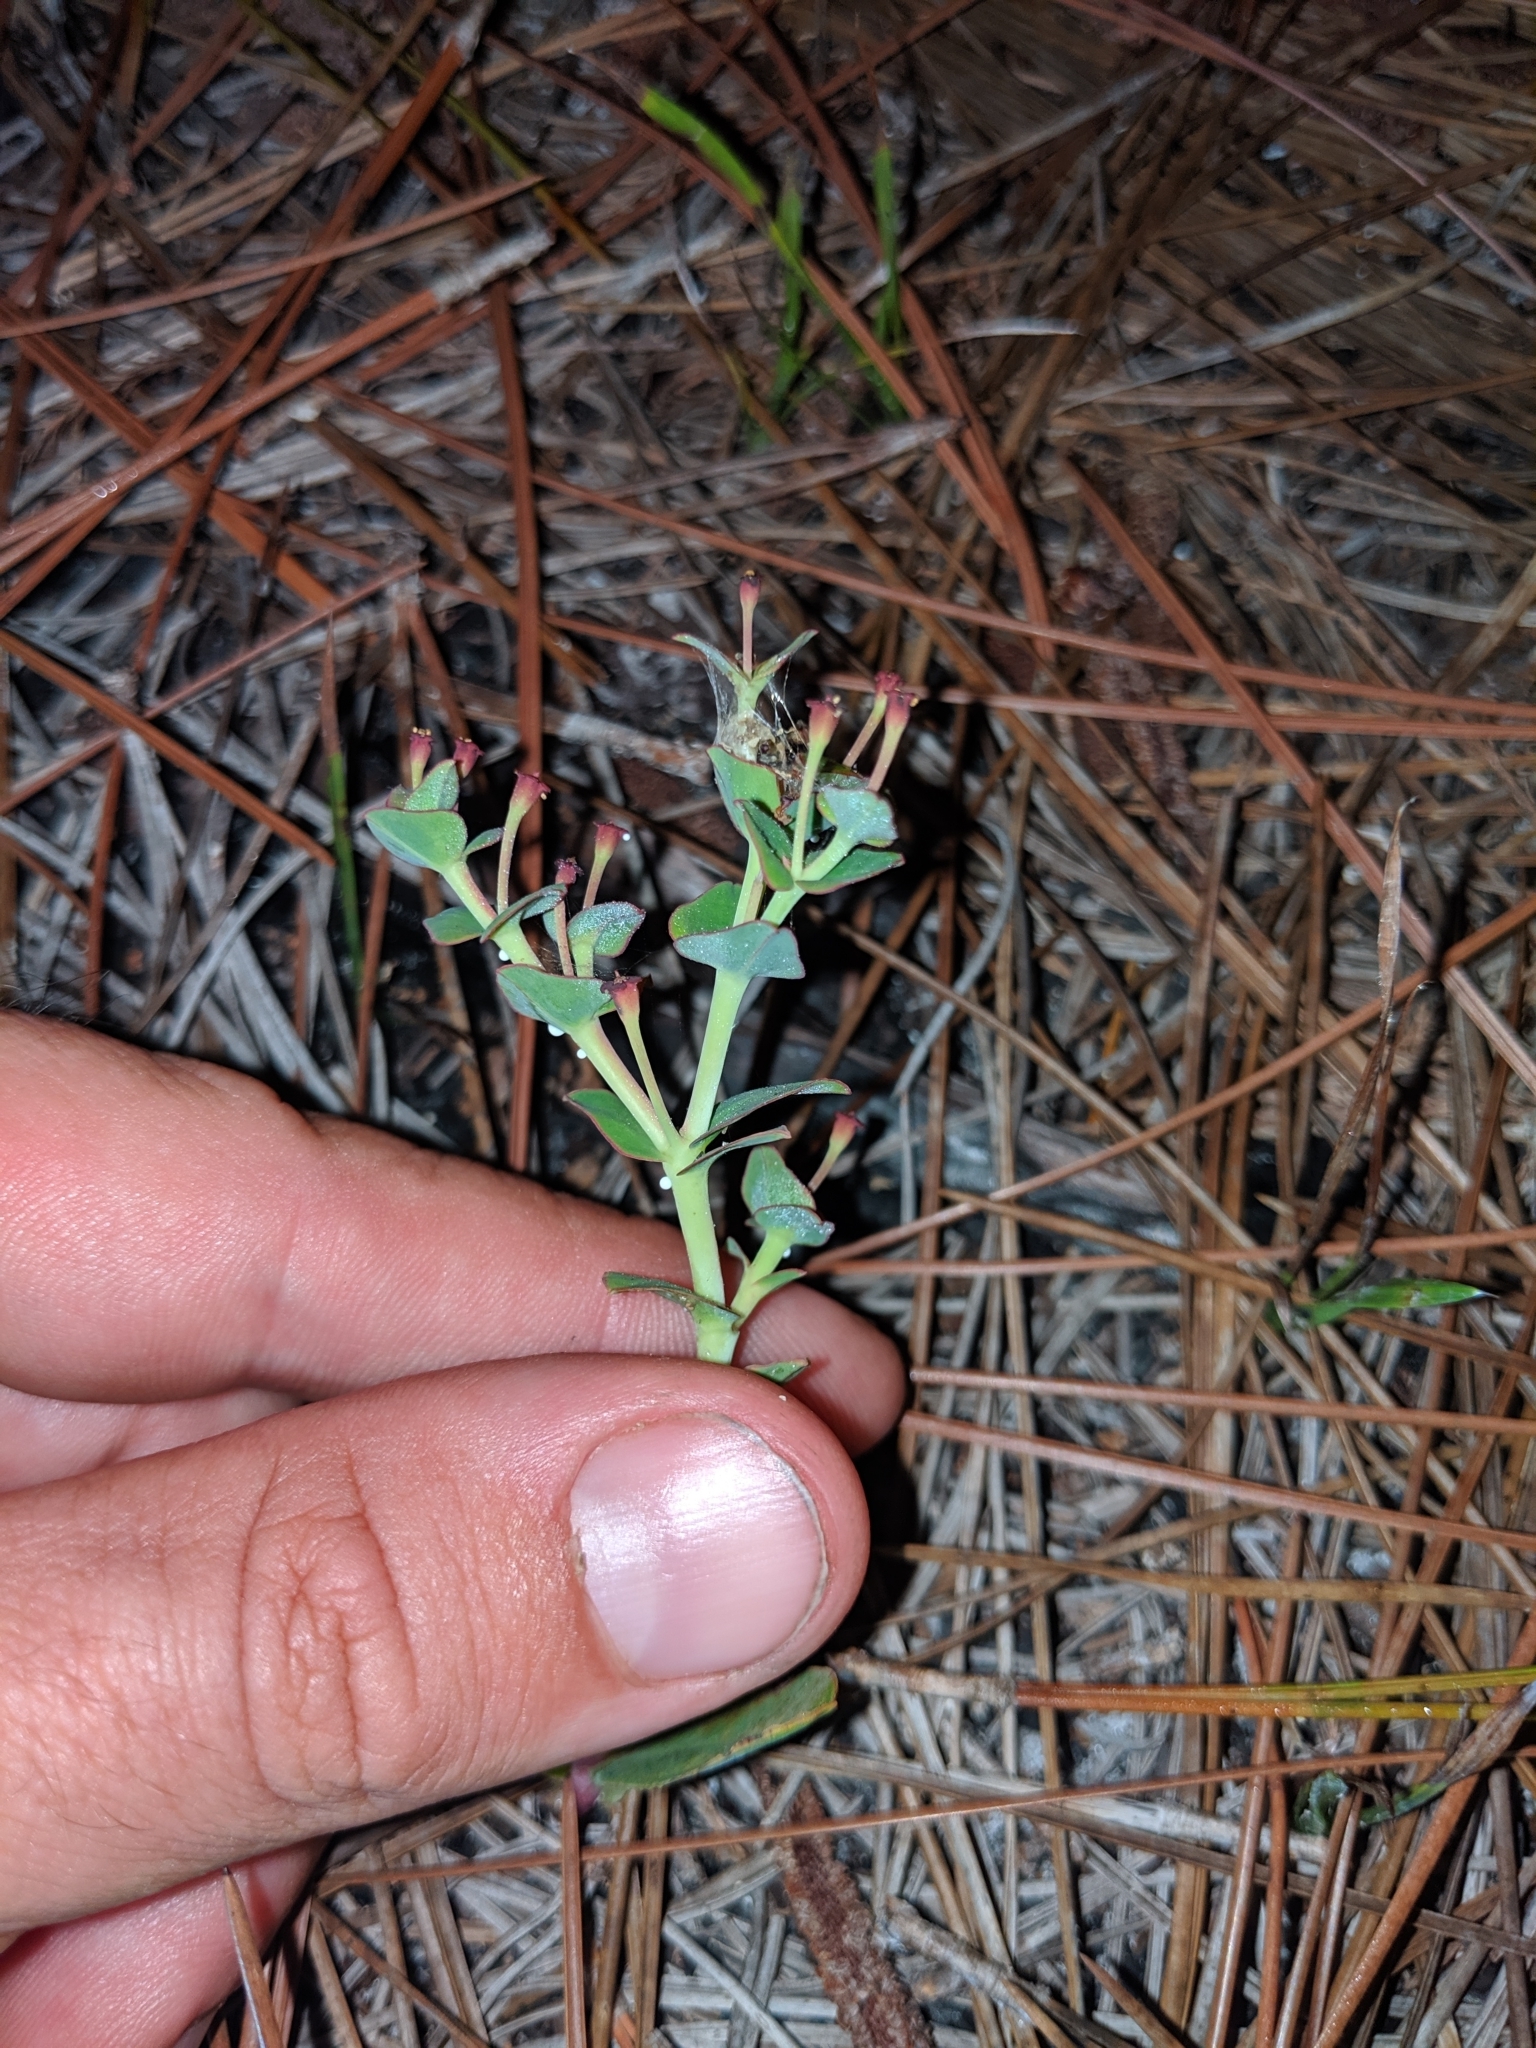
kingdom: Plantae
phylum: Tracheophyta
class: Magnoliopsida
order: Malpighiales
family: Euphorbiaceae
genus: Euphorbia
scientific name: Euphorbia telephioides
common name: Telephus spurge
